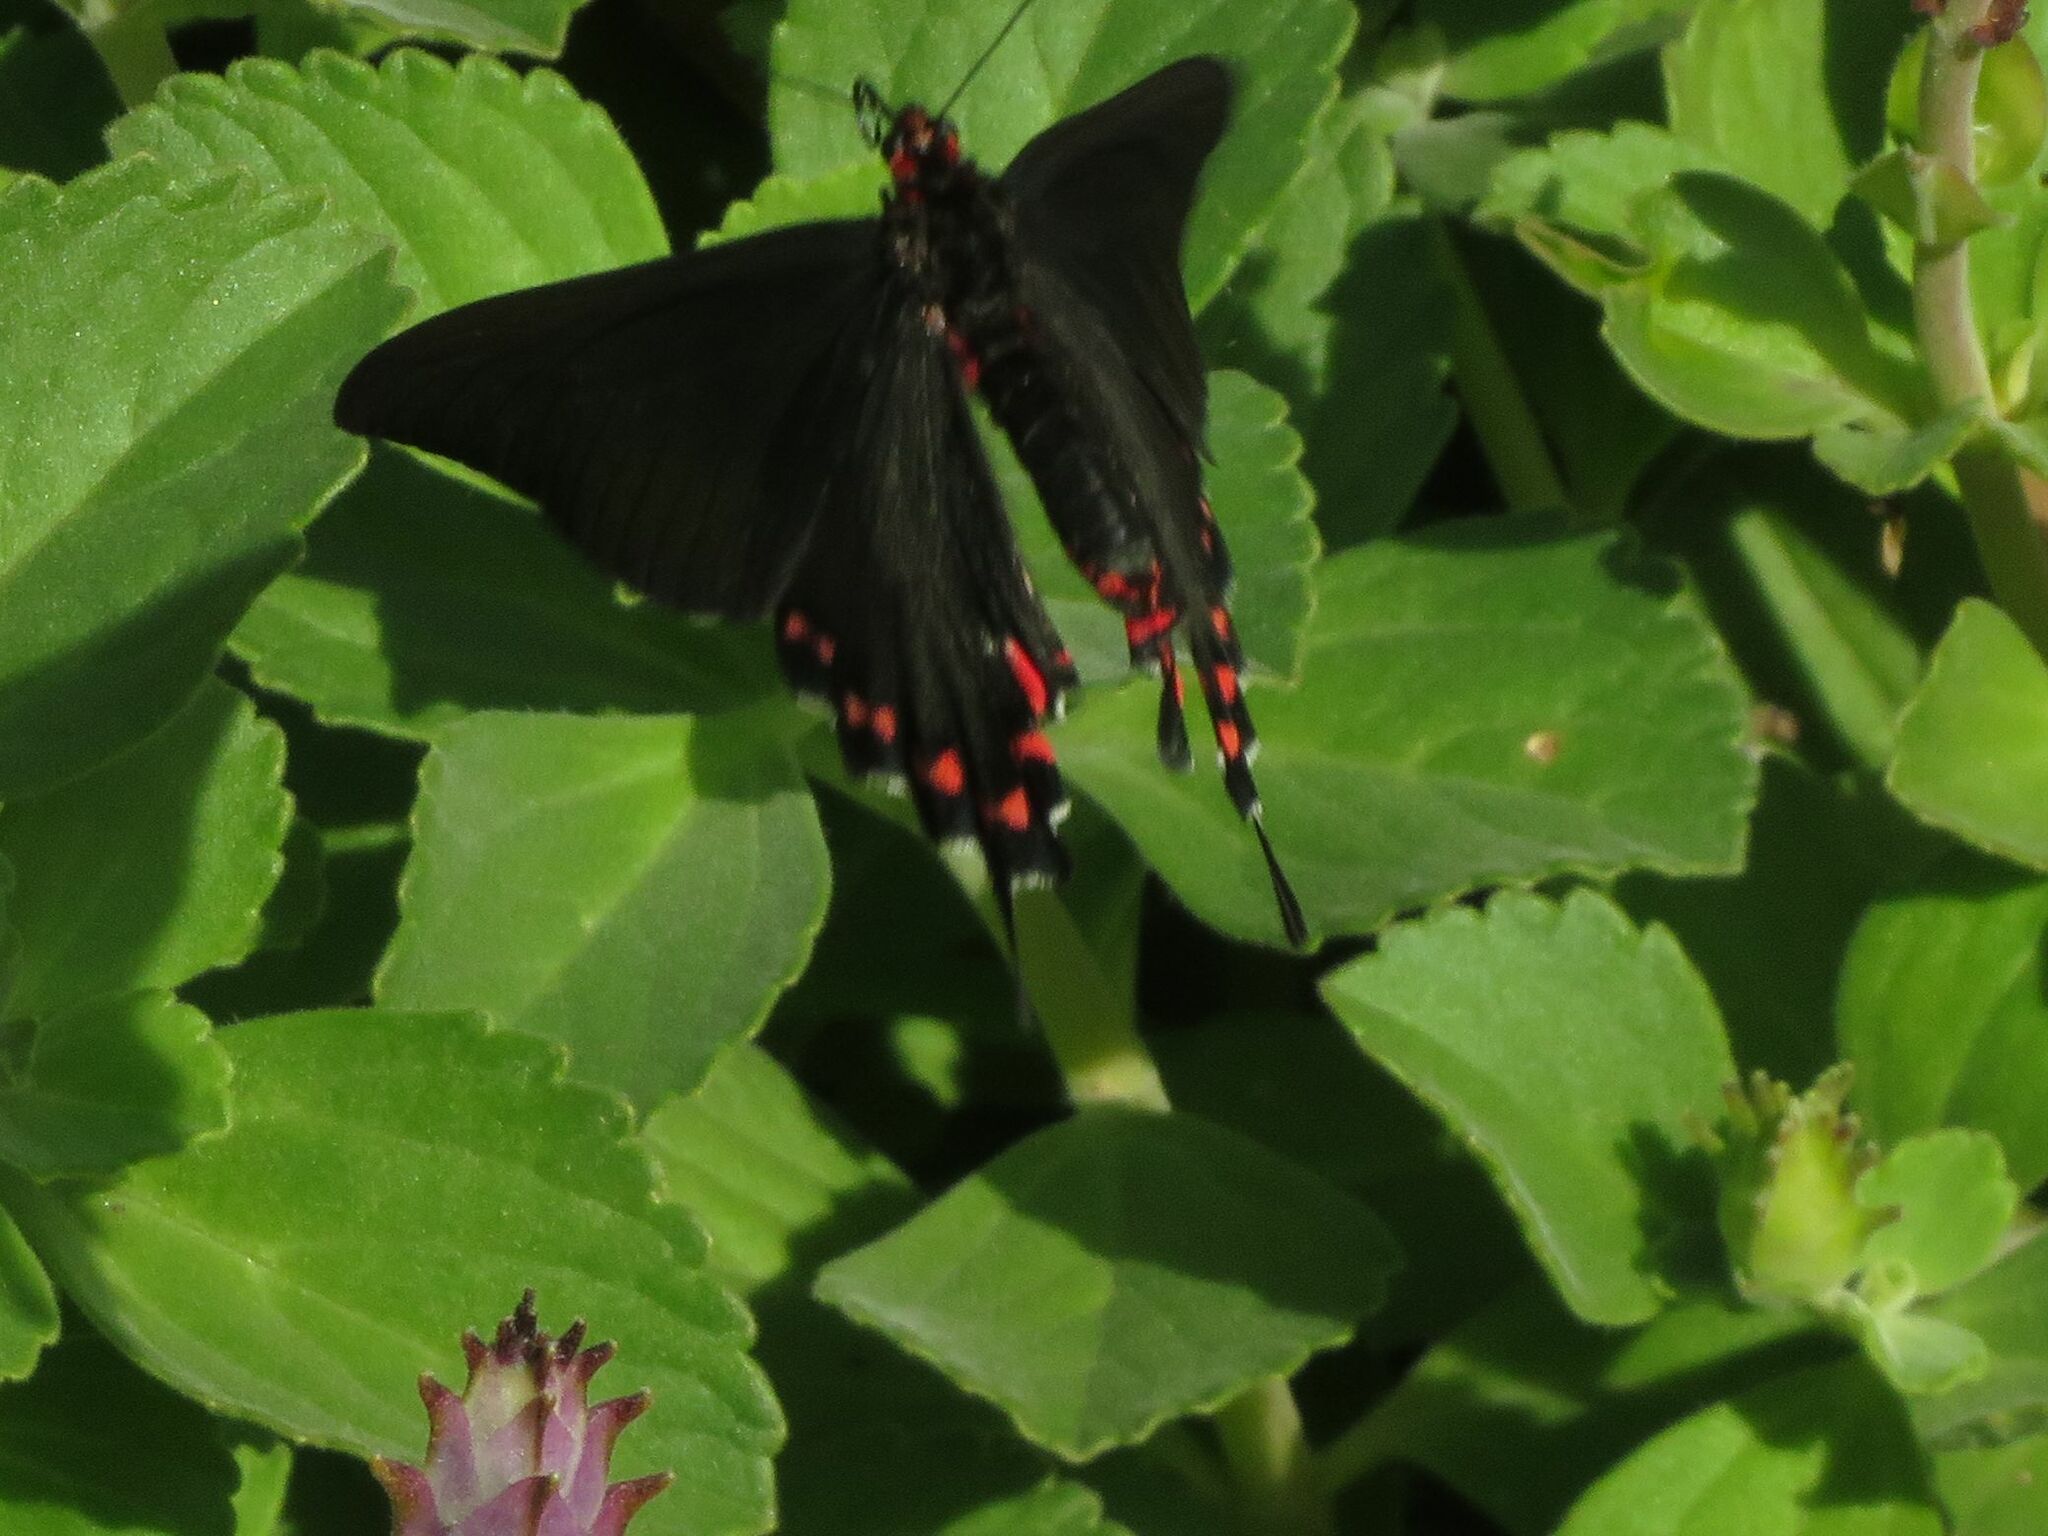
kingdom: Animalia
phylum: Arthropoda
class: Insecta
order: Lepidoptera
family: Papilionidae
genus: Parides
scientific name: Parides bunichus
